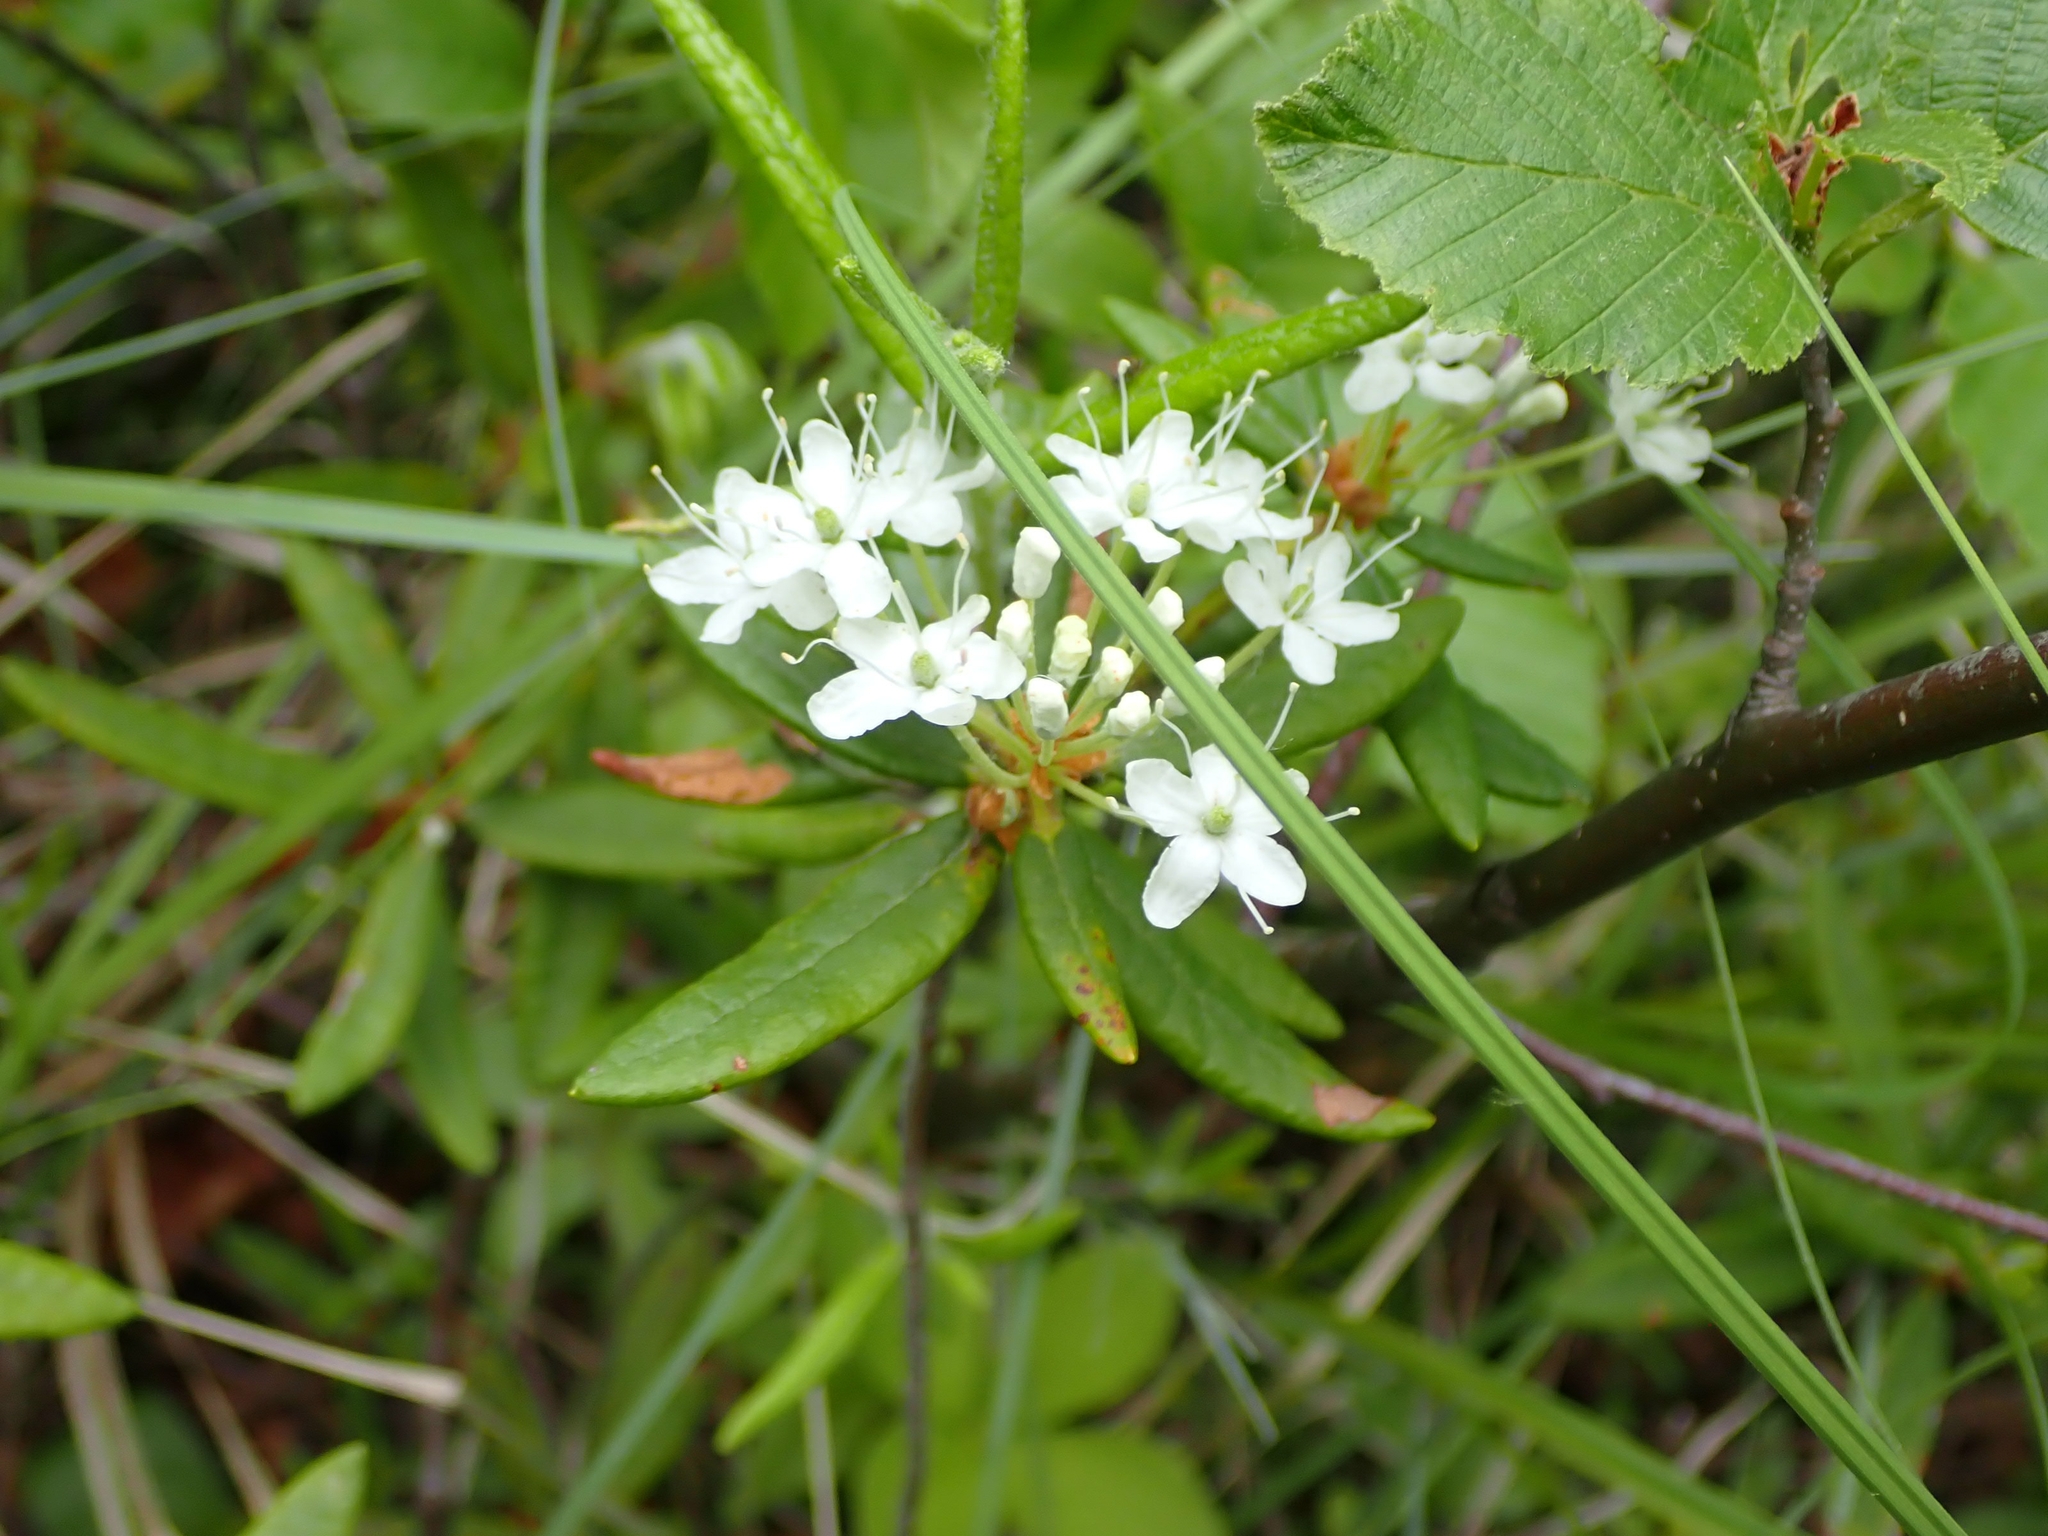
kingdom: Plantae
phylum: Tracheophyta
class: Magnoliopsida
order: Ericales
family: Ericaceae
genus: Rhododendron
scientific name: Rhododendron groenlandicum
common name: Bog labrador tea
